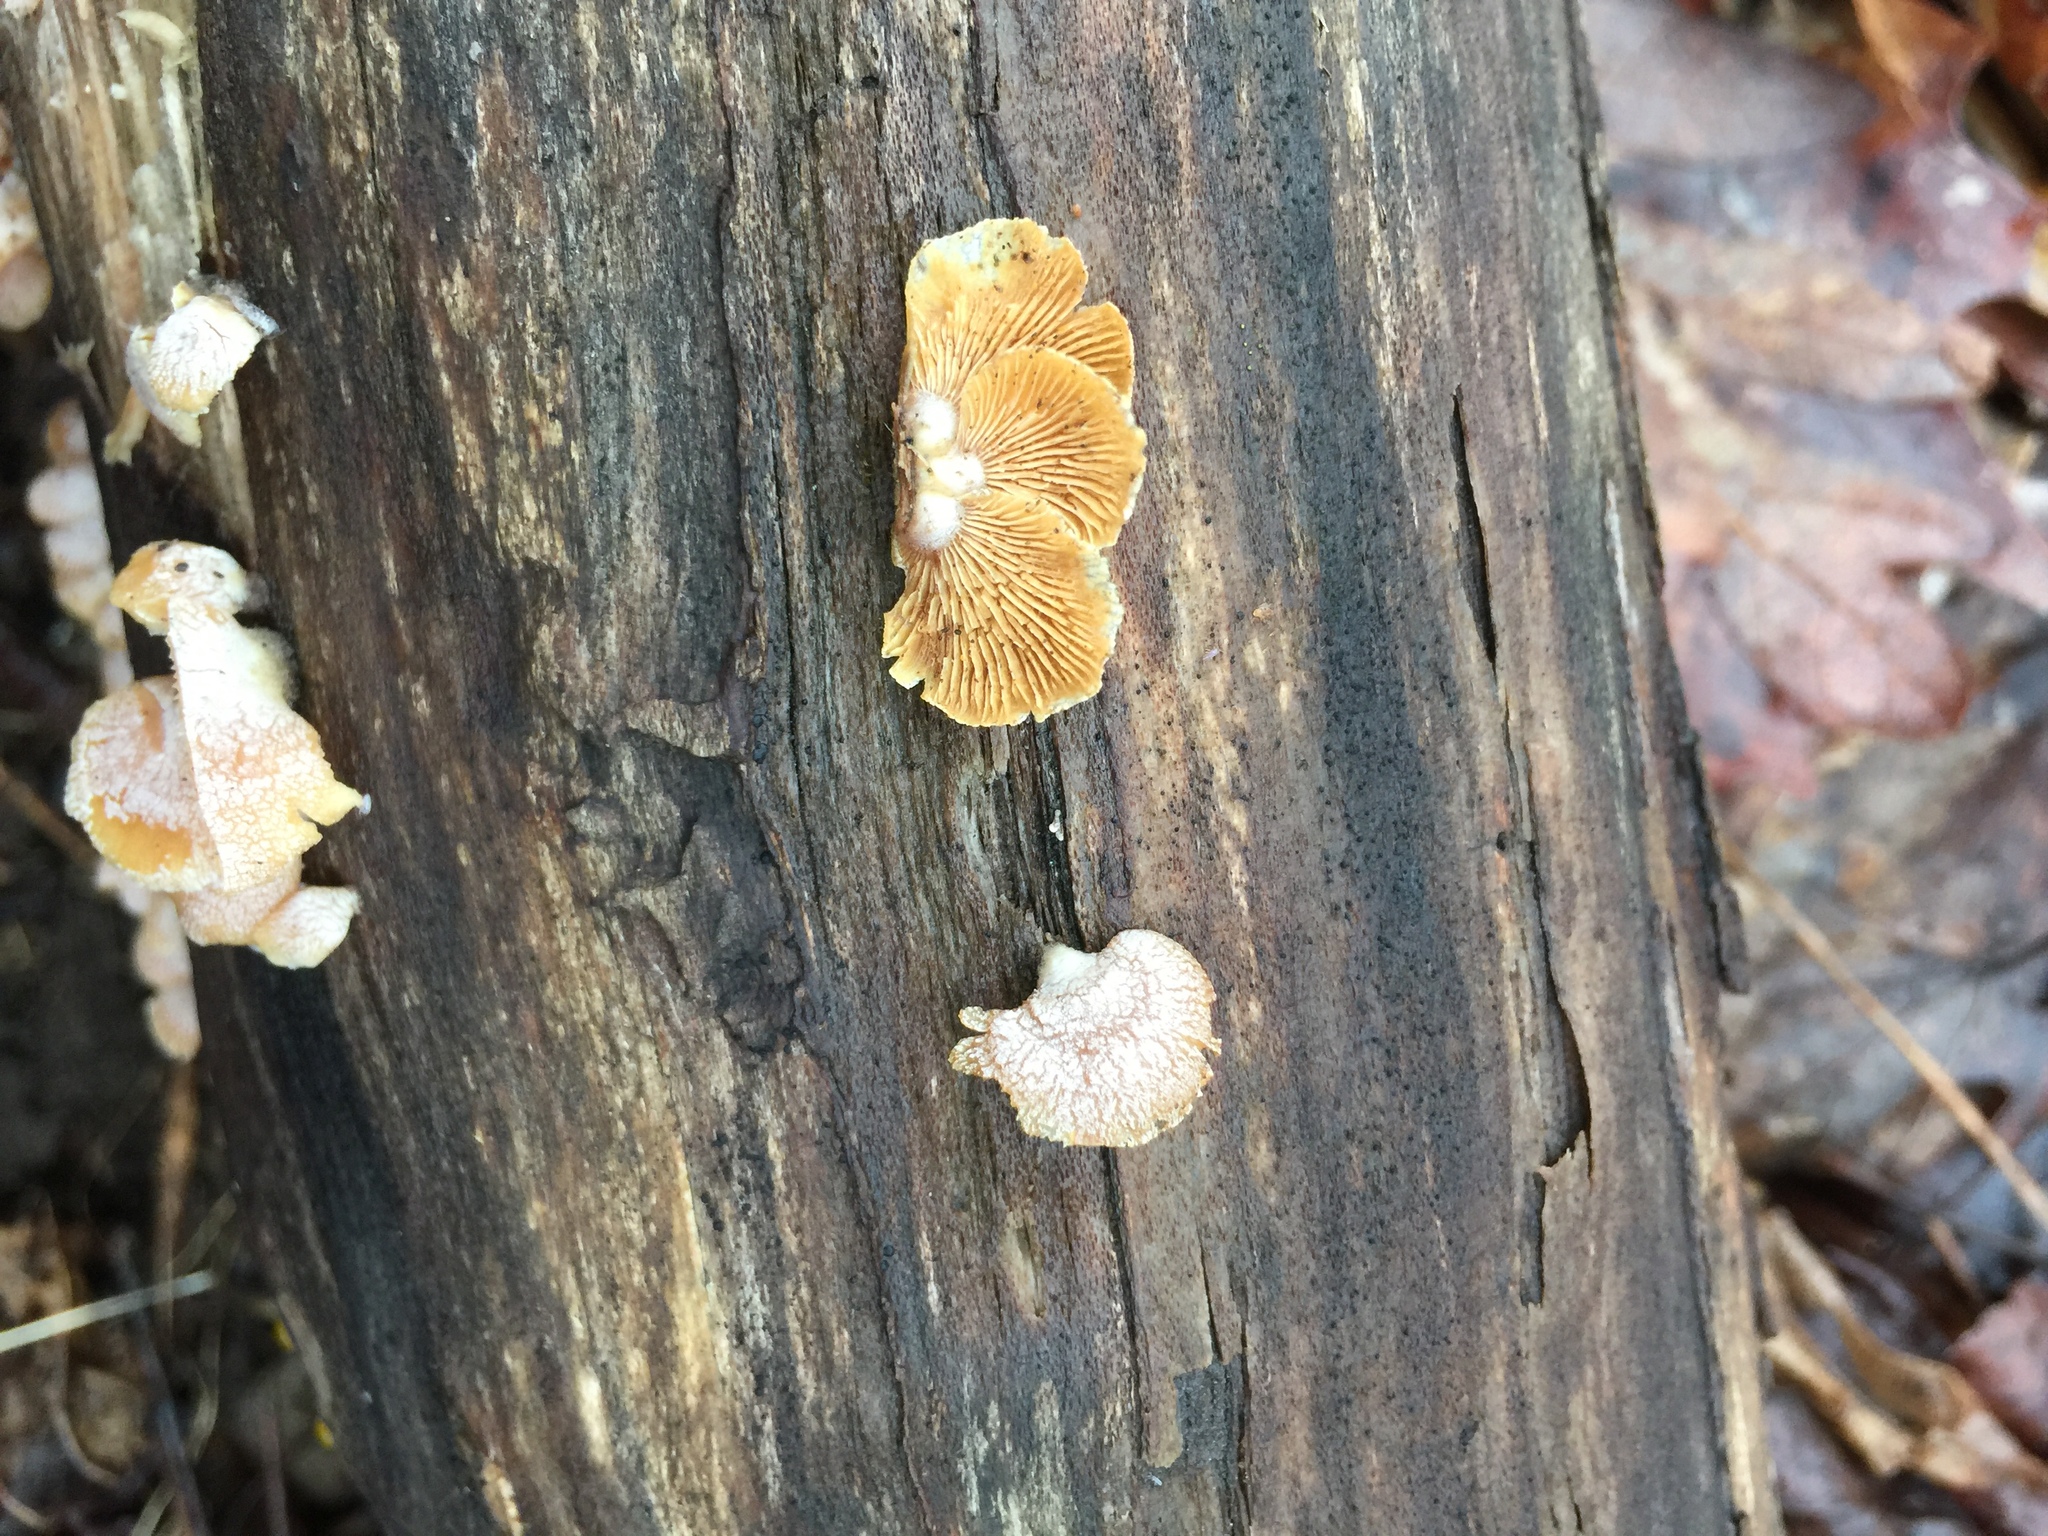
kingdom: Fungi
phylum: Basidiomycota
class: Agaricomycetes
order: Agaricales
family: Mycenaceae
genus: Panellus
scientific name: Panellus stipticus
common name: Bitter oysterling
